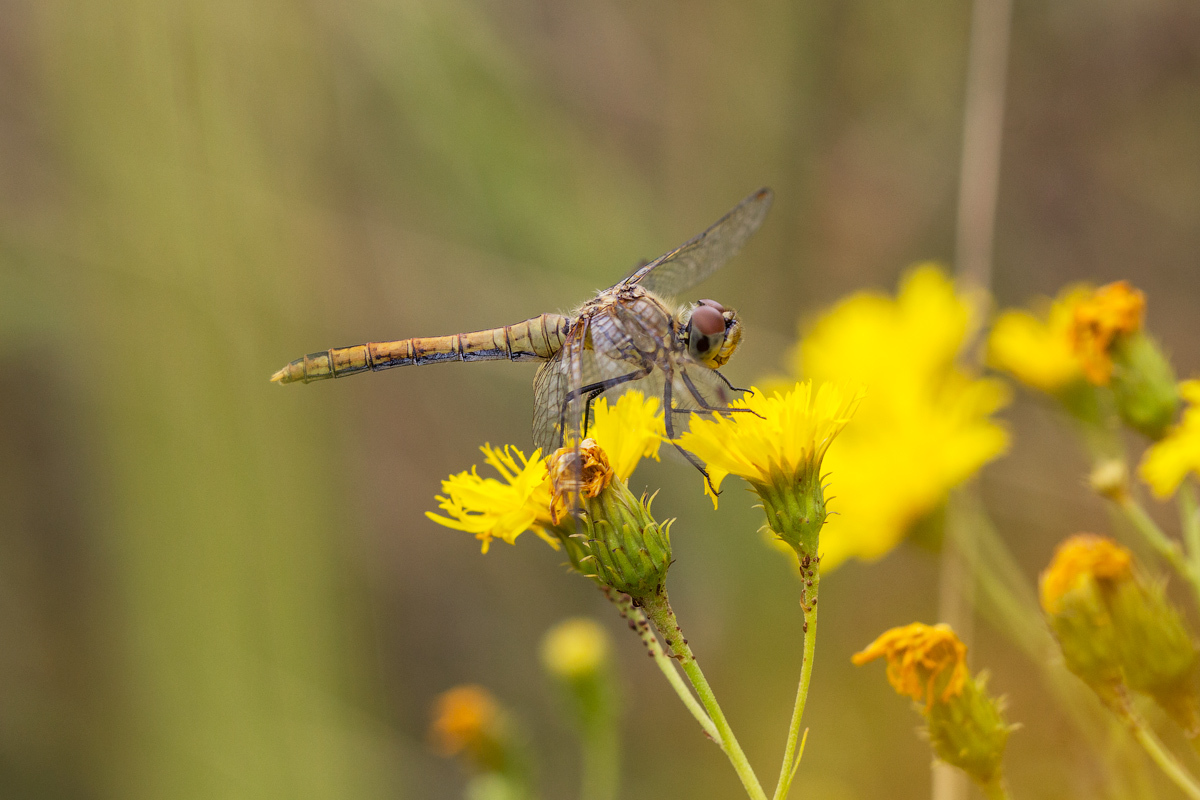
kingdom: Animalia
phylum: Arthropoda
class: Insecta
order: Odonata
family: Libellulidae
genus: Sympetrum
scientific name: Sympetrum sanguineum
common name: Ruddy darter
